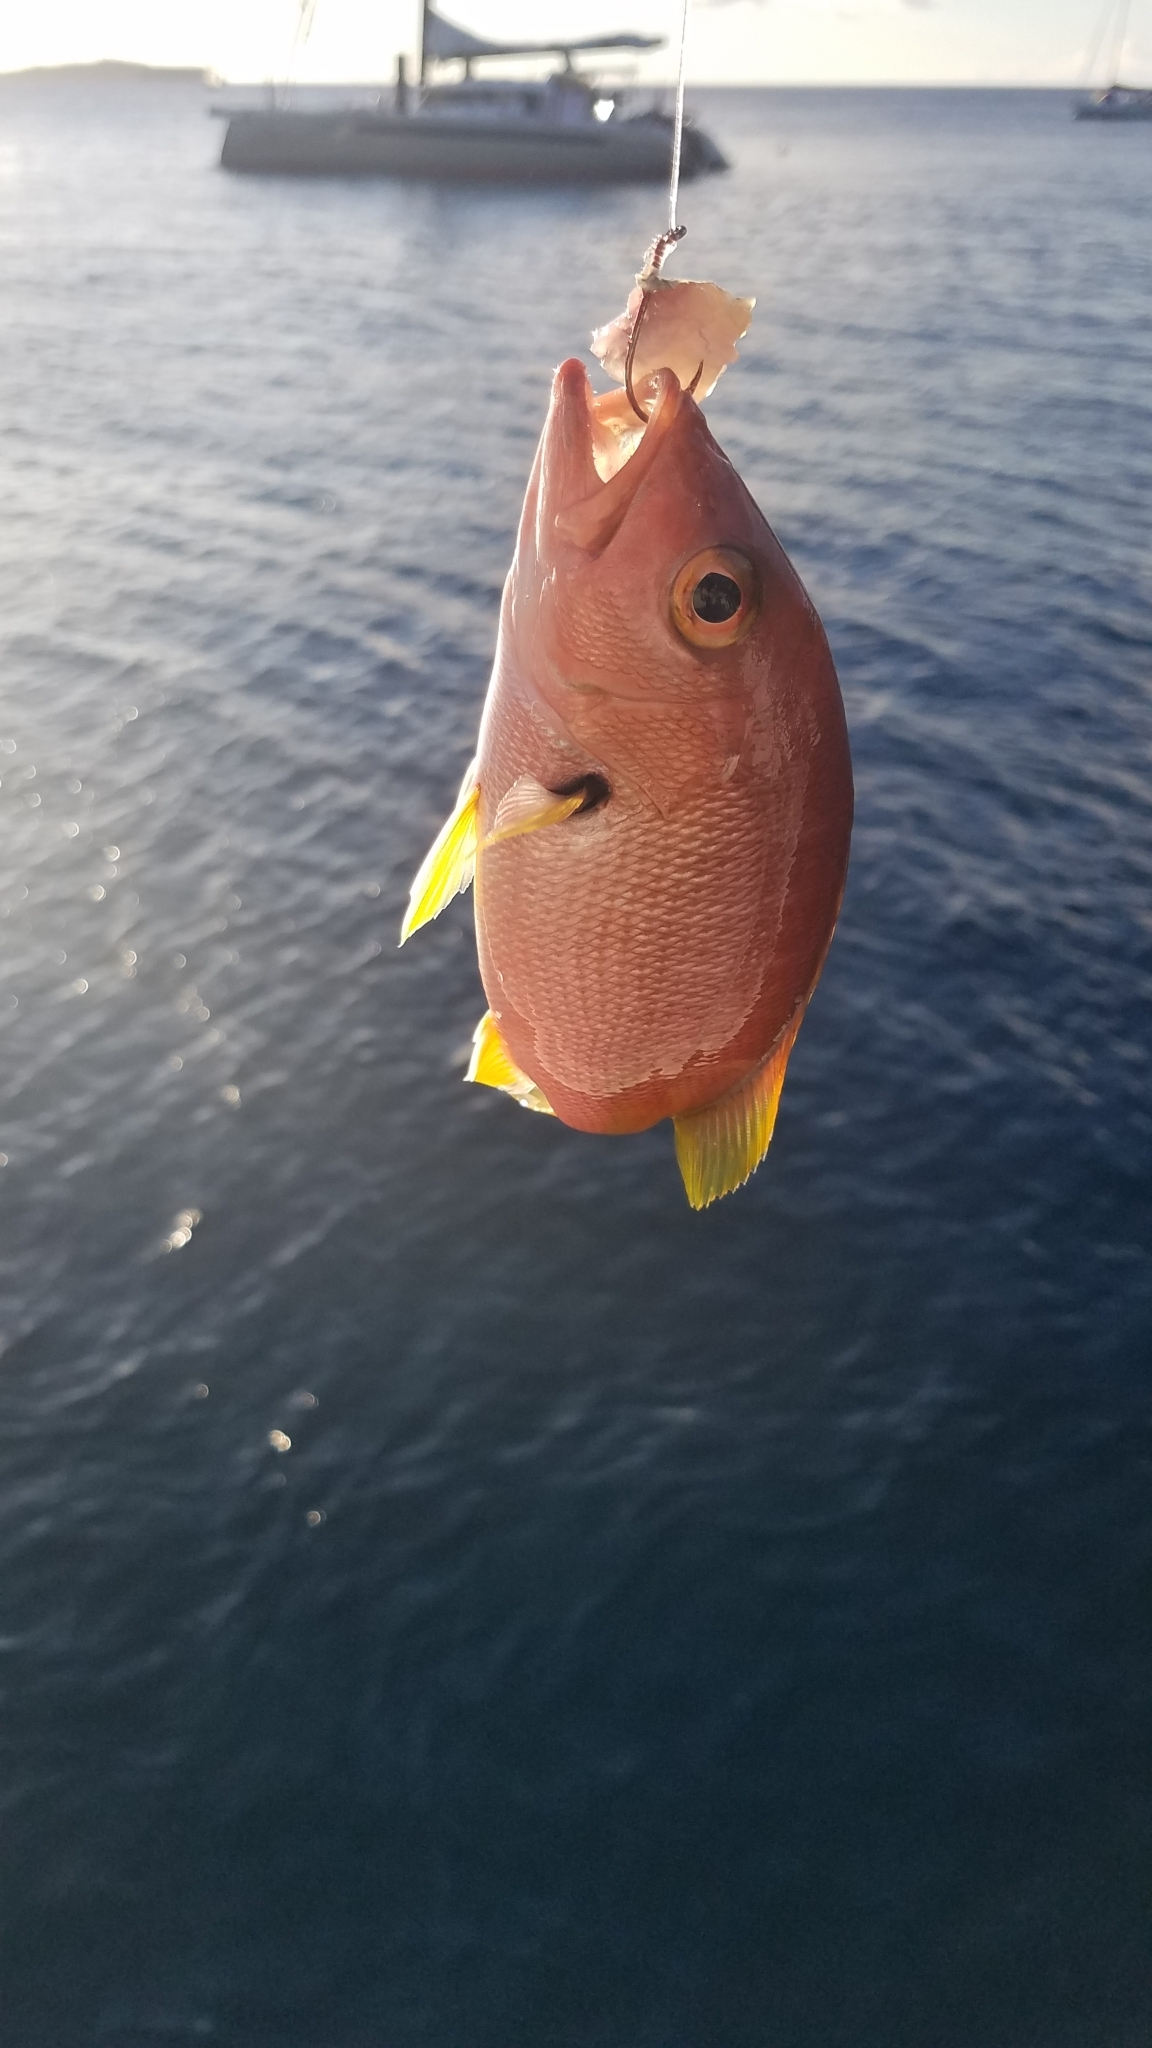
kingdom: Animalia
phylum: Chordata
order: Perciformes
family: Lutjanidae
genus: Lutjanus
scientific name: Lutjanus buccanella
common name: Blackfin snapper
